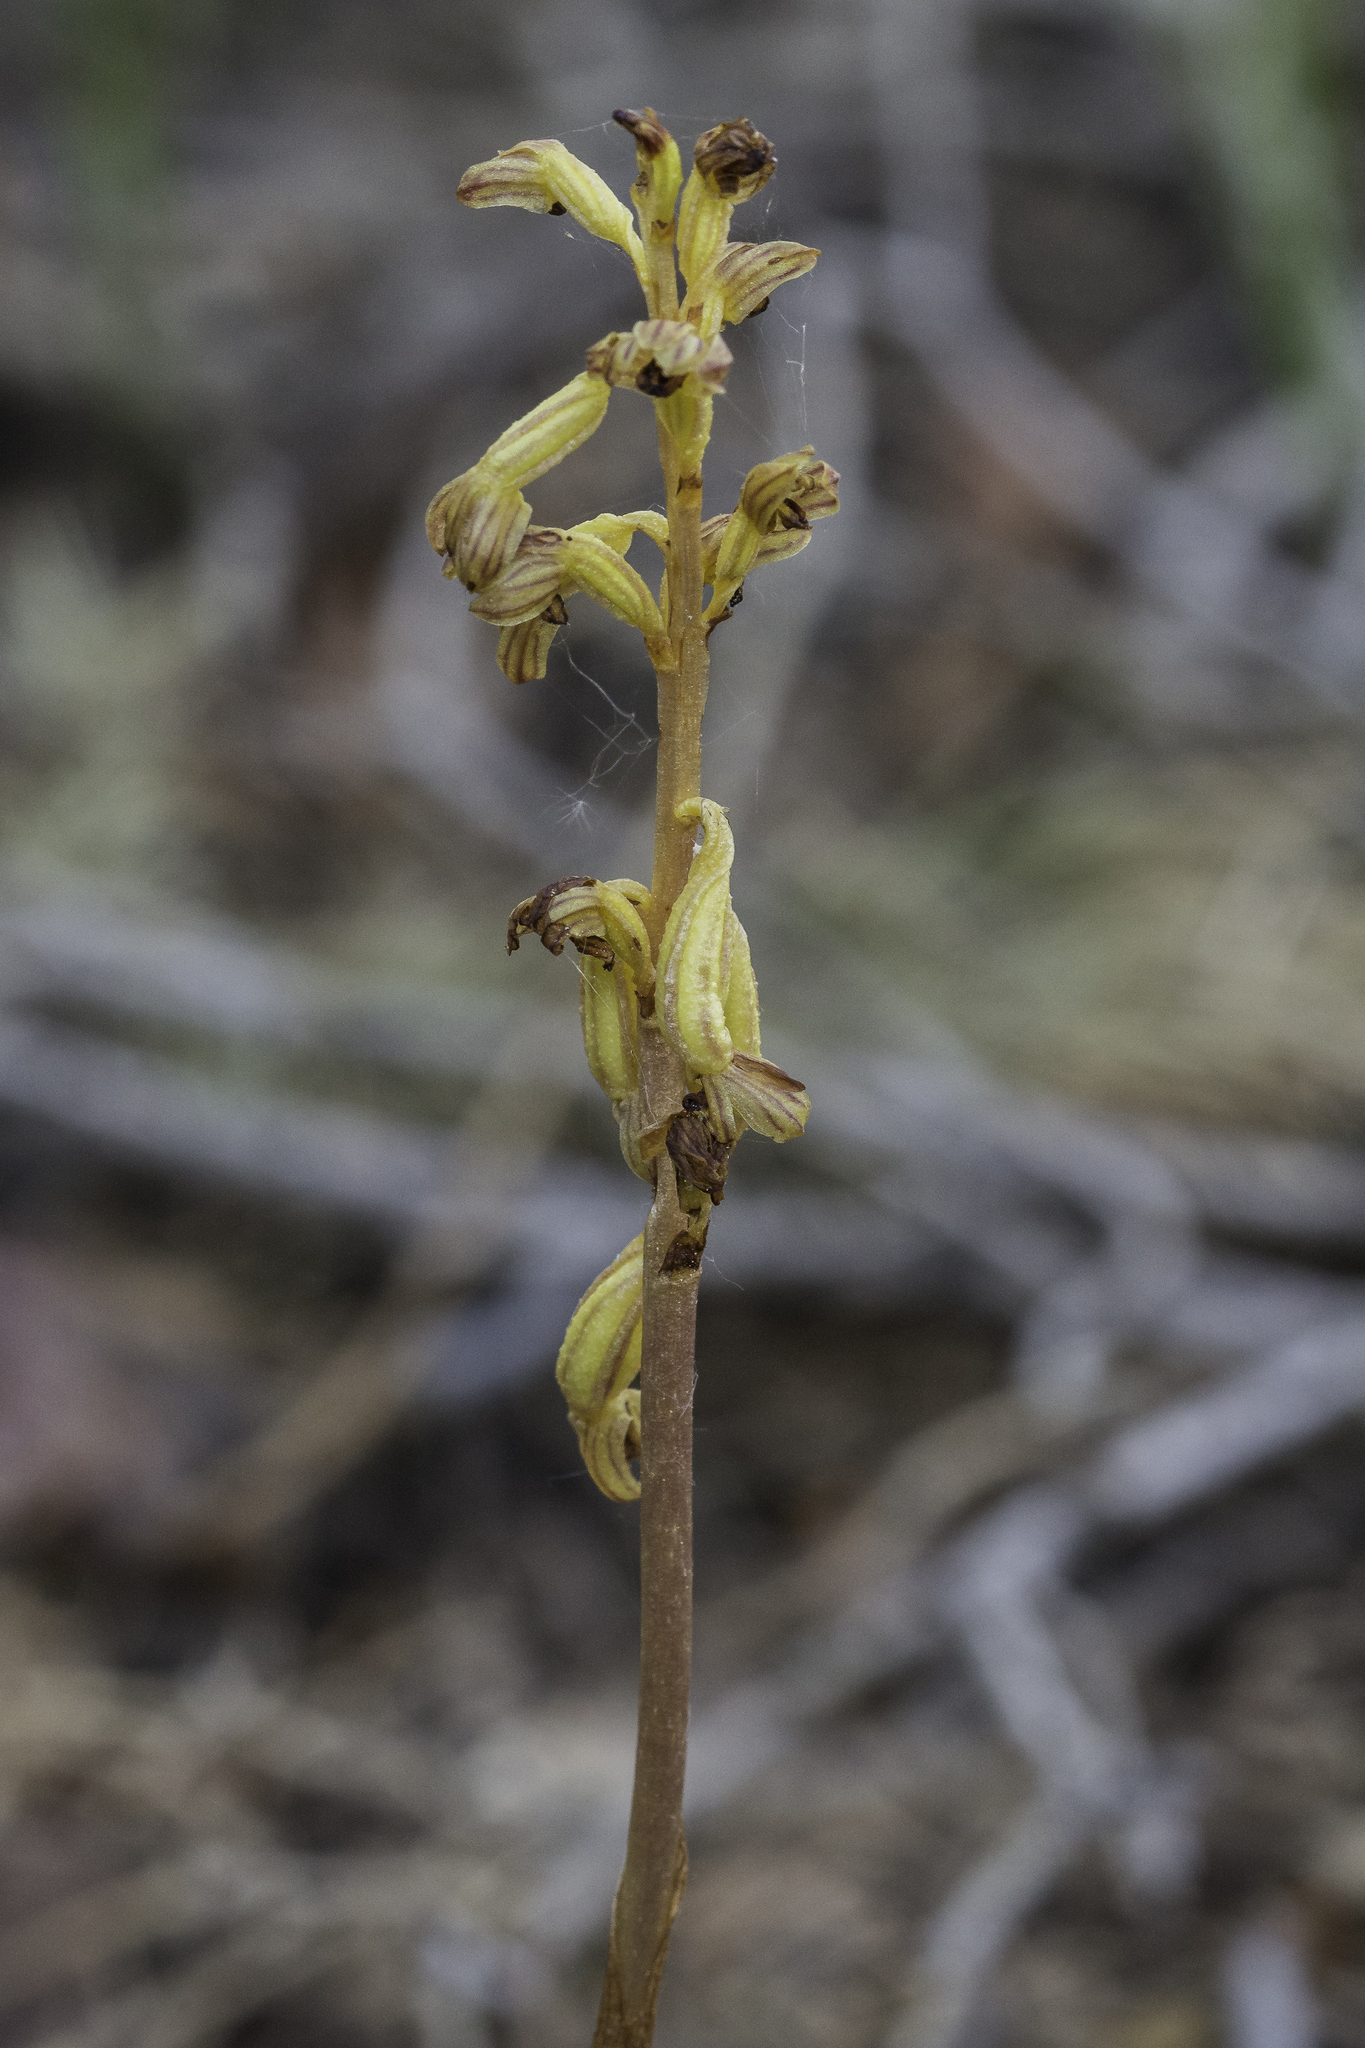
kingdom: Plantae
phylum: Tracheophyta
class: Liliopsida
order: Asparagales
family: Orchidaceae
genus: Corallorhiza
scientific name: Corallorhiza striata
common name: Hooded coralroot
